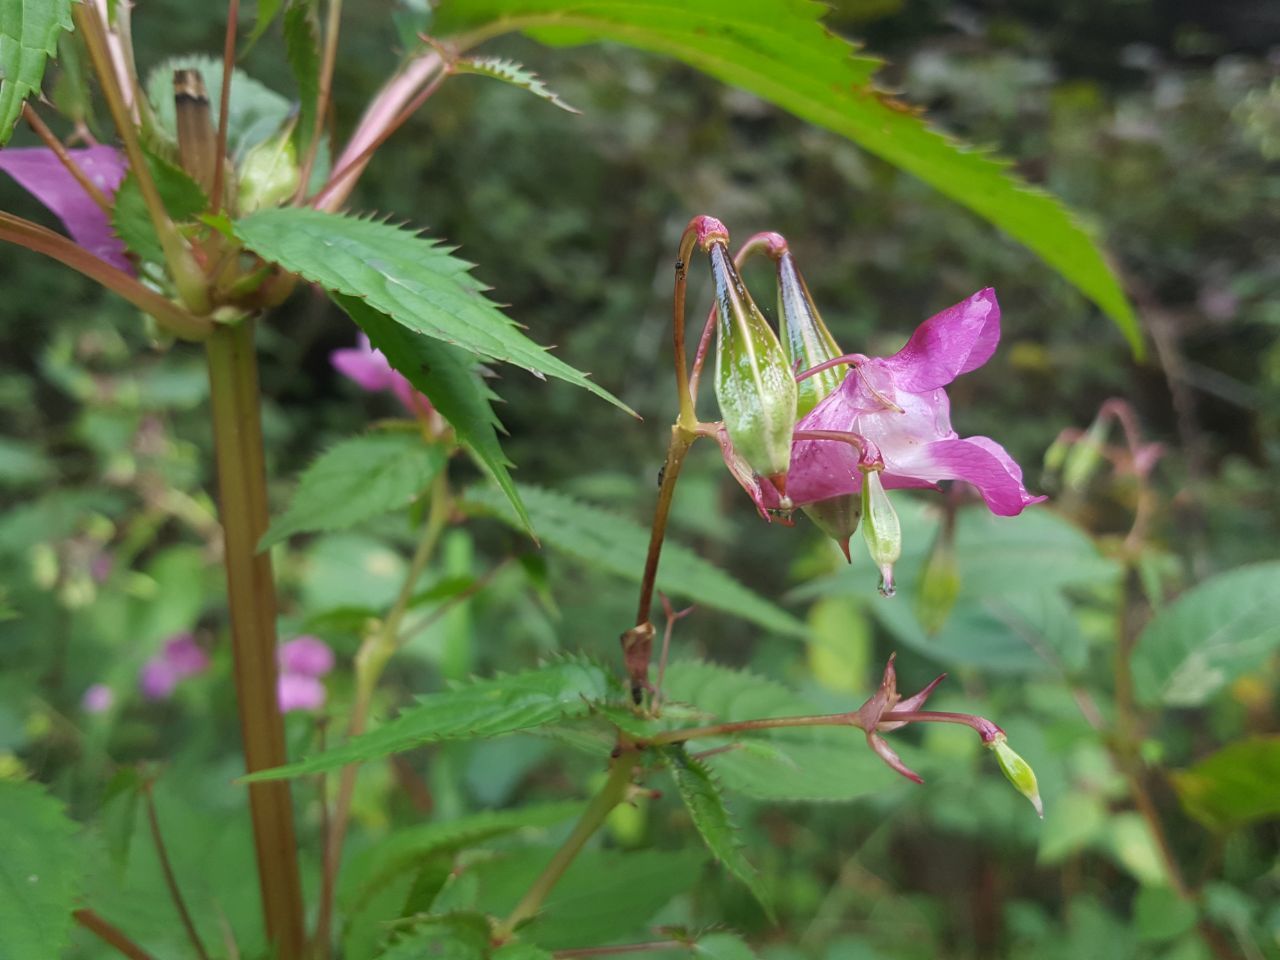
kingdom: Plantae
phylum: Tracheophyta
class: Magnoliopsida
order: Ericales
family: Balsaminaceae
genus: Impatiens
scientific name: Impatiens glandulifera
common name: Himalayan balsam
